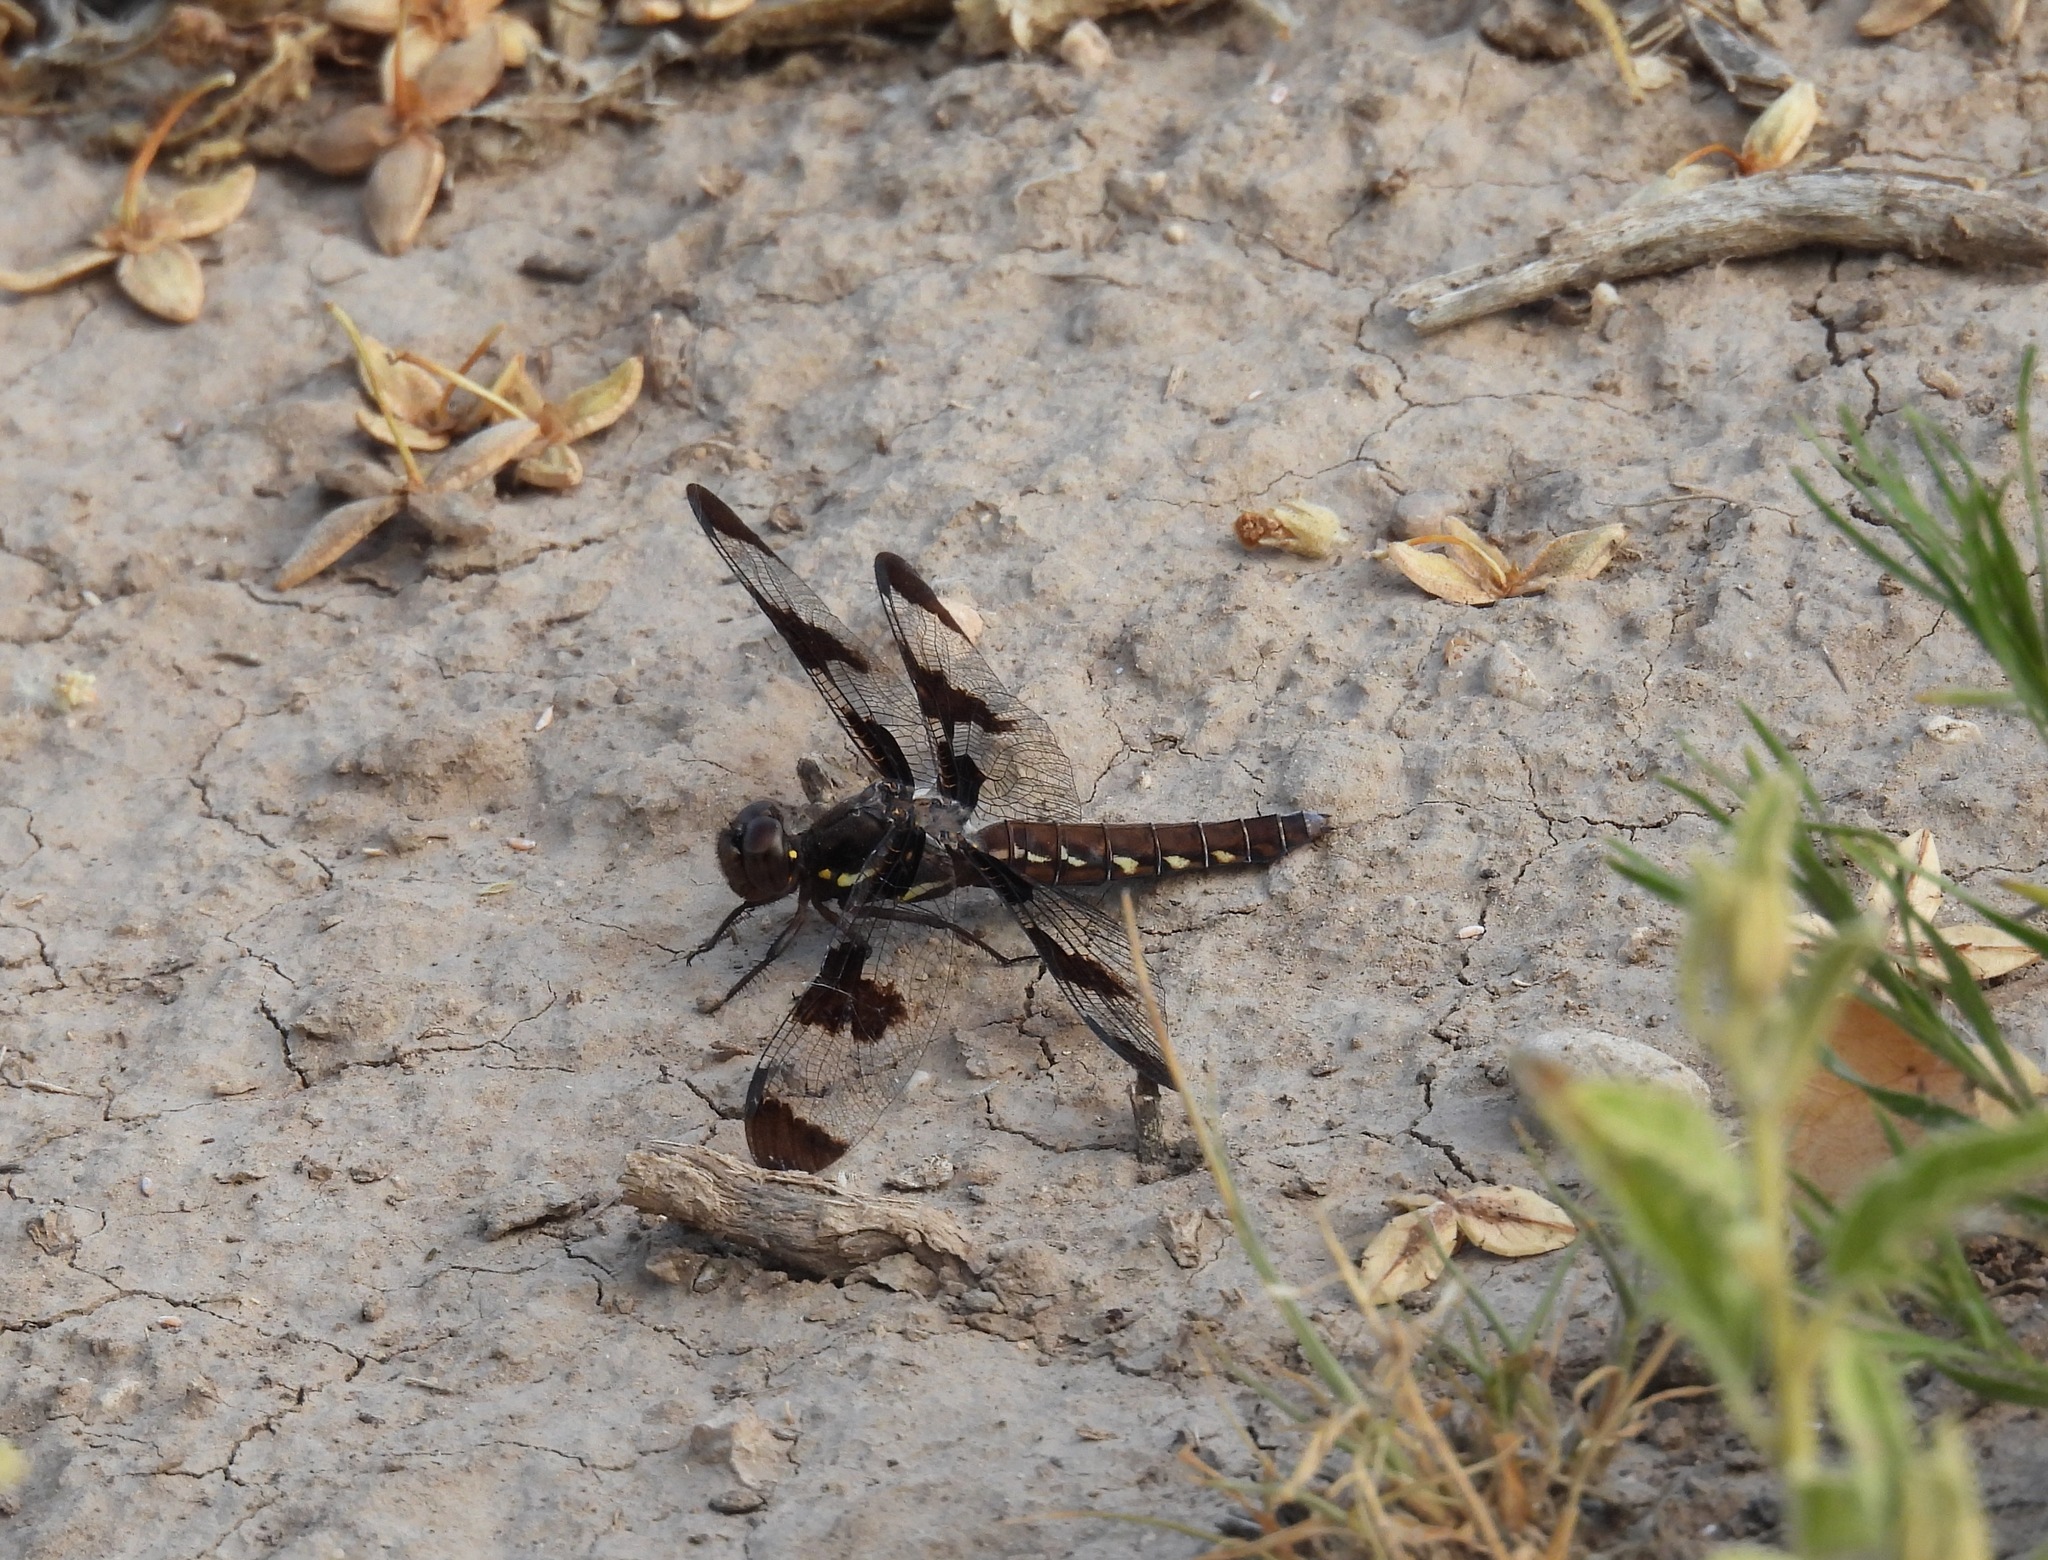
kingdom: Animalia
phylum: Arthropoda
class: Insecta
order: Odonata
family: Libellulidae
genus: Plathemis
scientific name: Plathemis lydia
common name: Common whitetail
